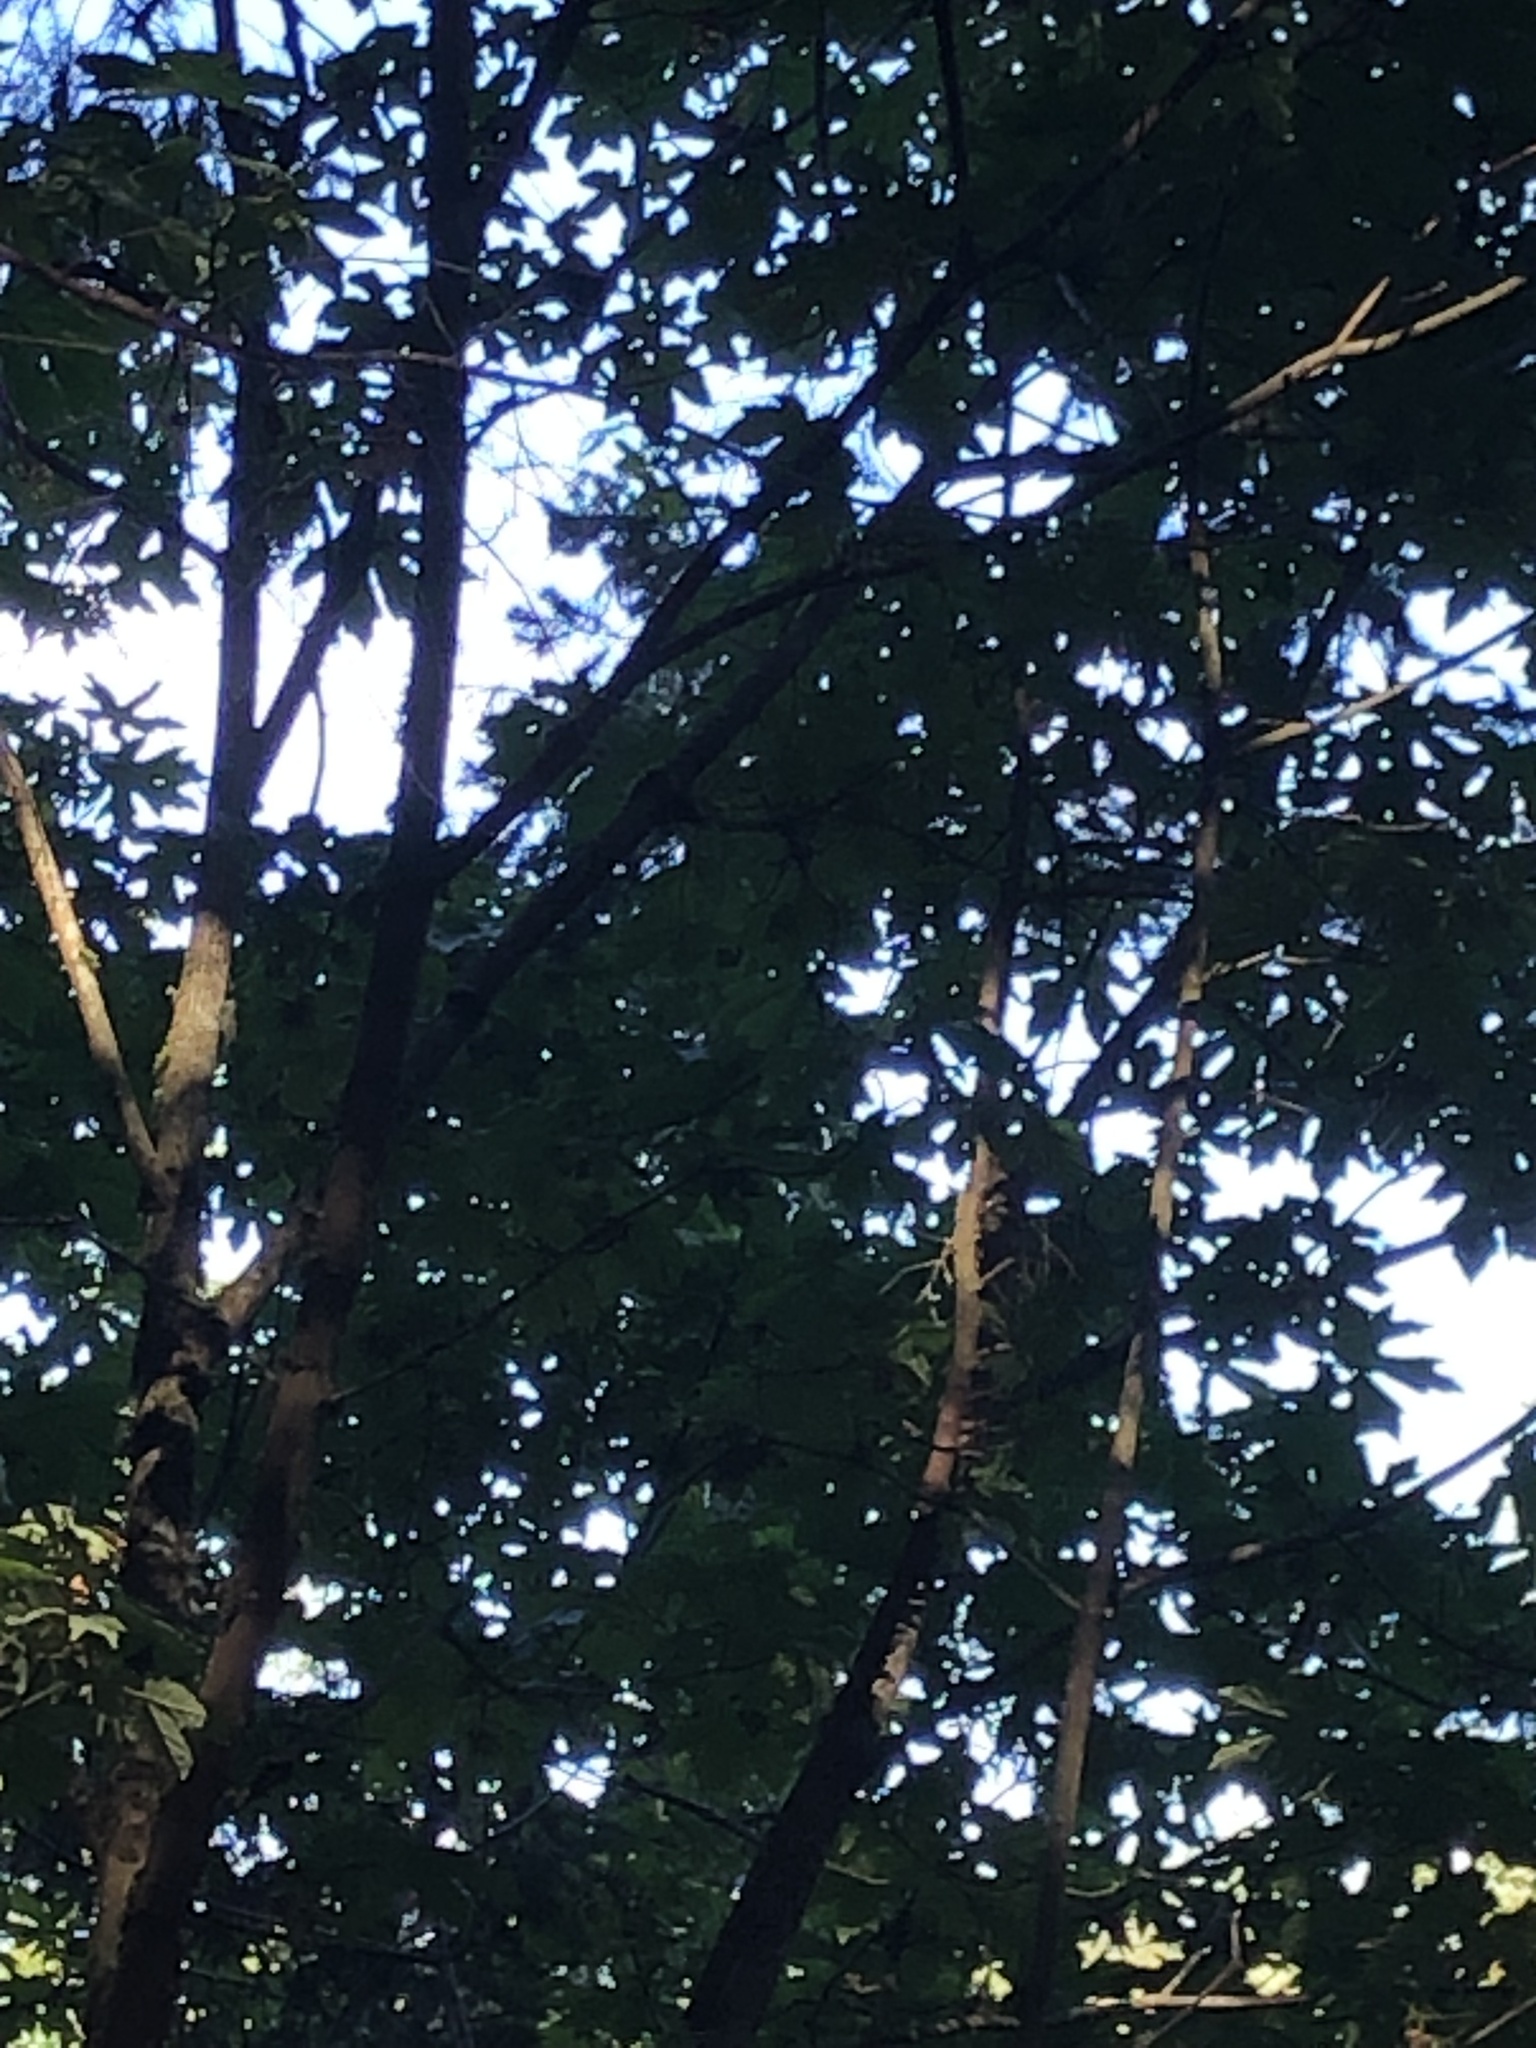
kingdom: Plantae
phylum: Tracheophyta
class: Magnoliopsida
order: Sapindales
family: Sapindaceae
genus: Acer
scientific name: Acer macrophyllum
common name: Oregon maple
